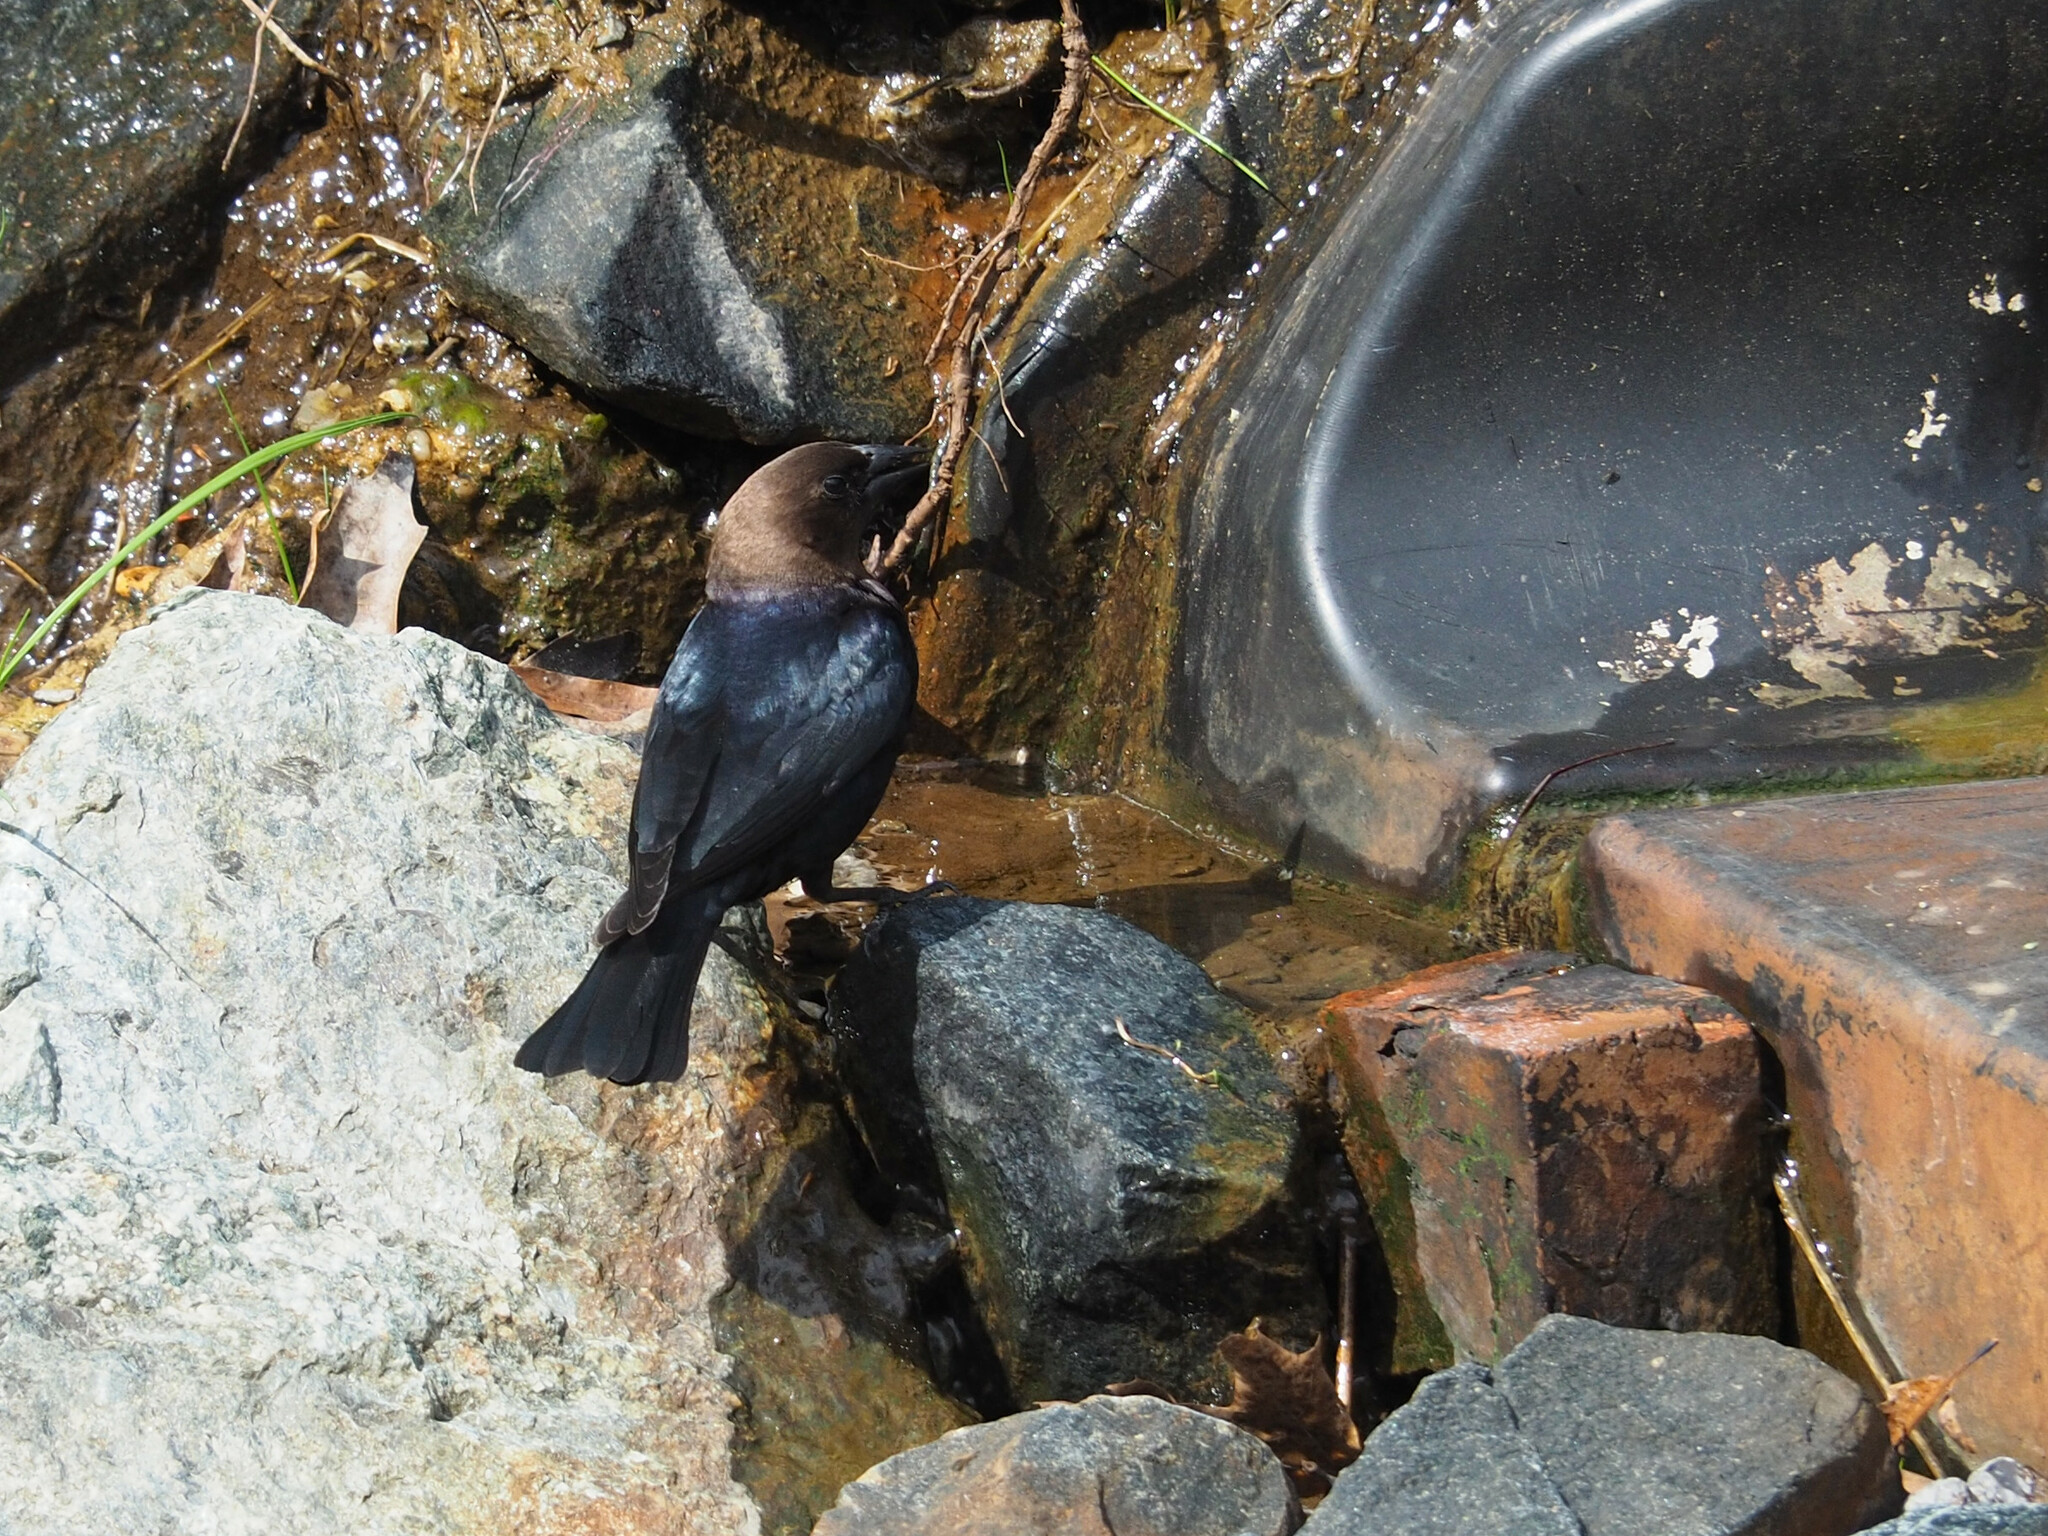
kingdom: Animalia
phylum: Chordata
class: Aves
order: Passeriformes
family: Icteridae
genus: Molothrus
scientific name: Molothrus ater
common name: Brown-headed cowbird
